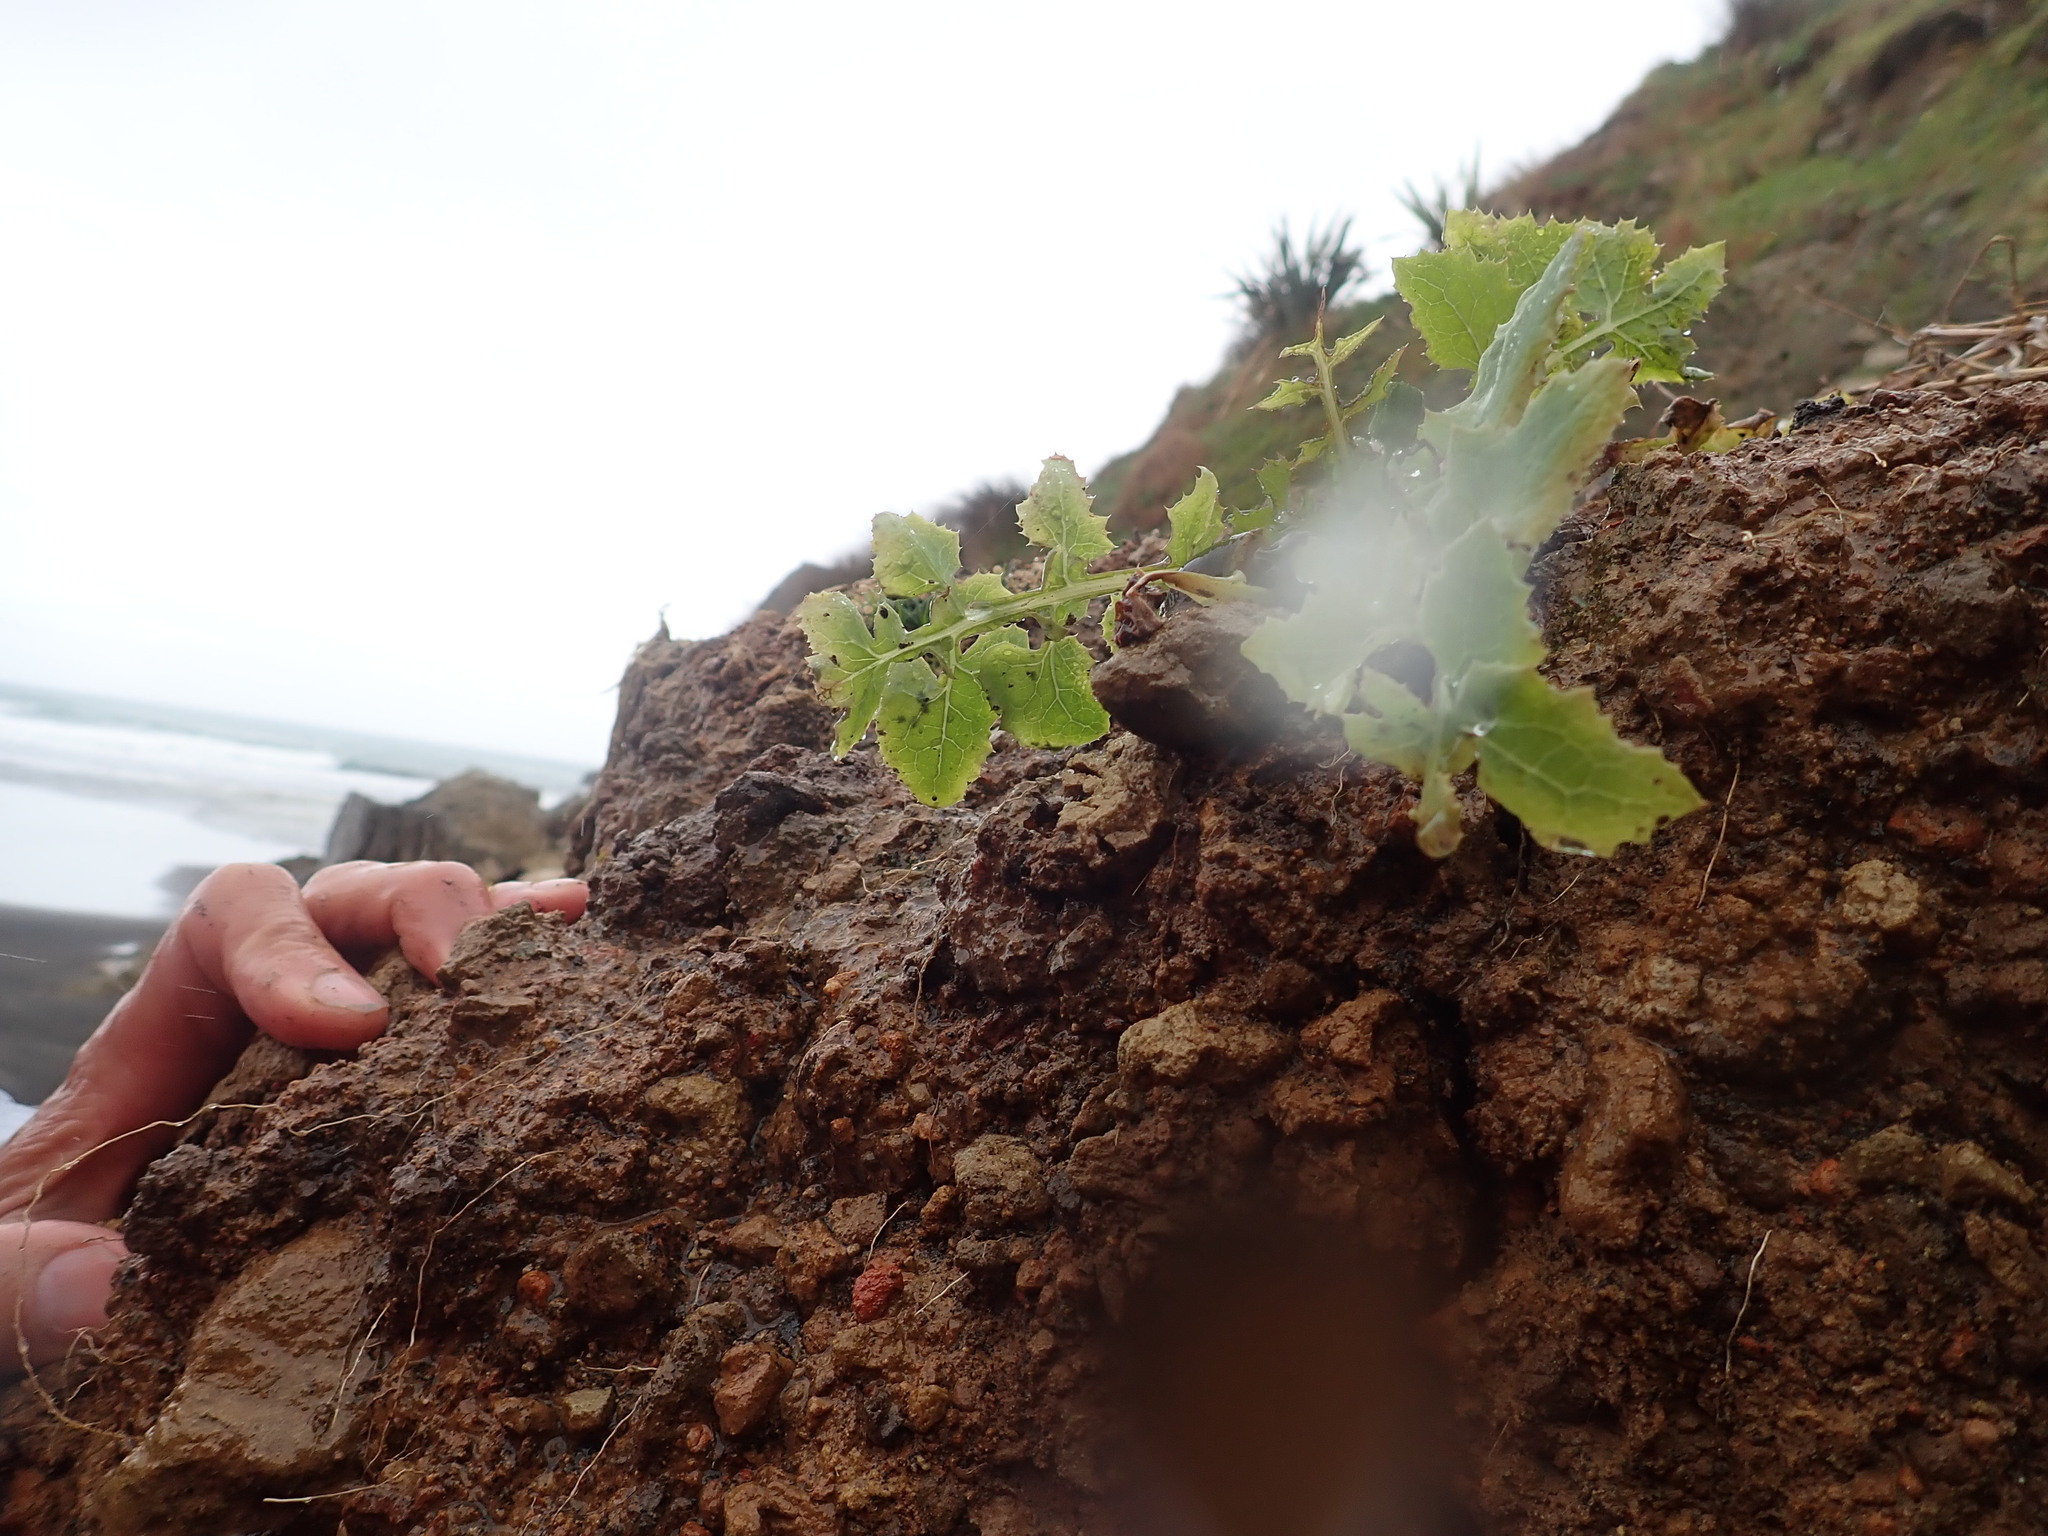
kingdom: Animalia
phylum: Mollusca
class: Gastropoda
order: Stylommatophora
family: Helicidae
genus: Cornu
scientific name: Cornu aspersum
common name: Brown garden snail
